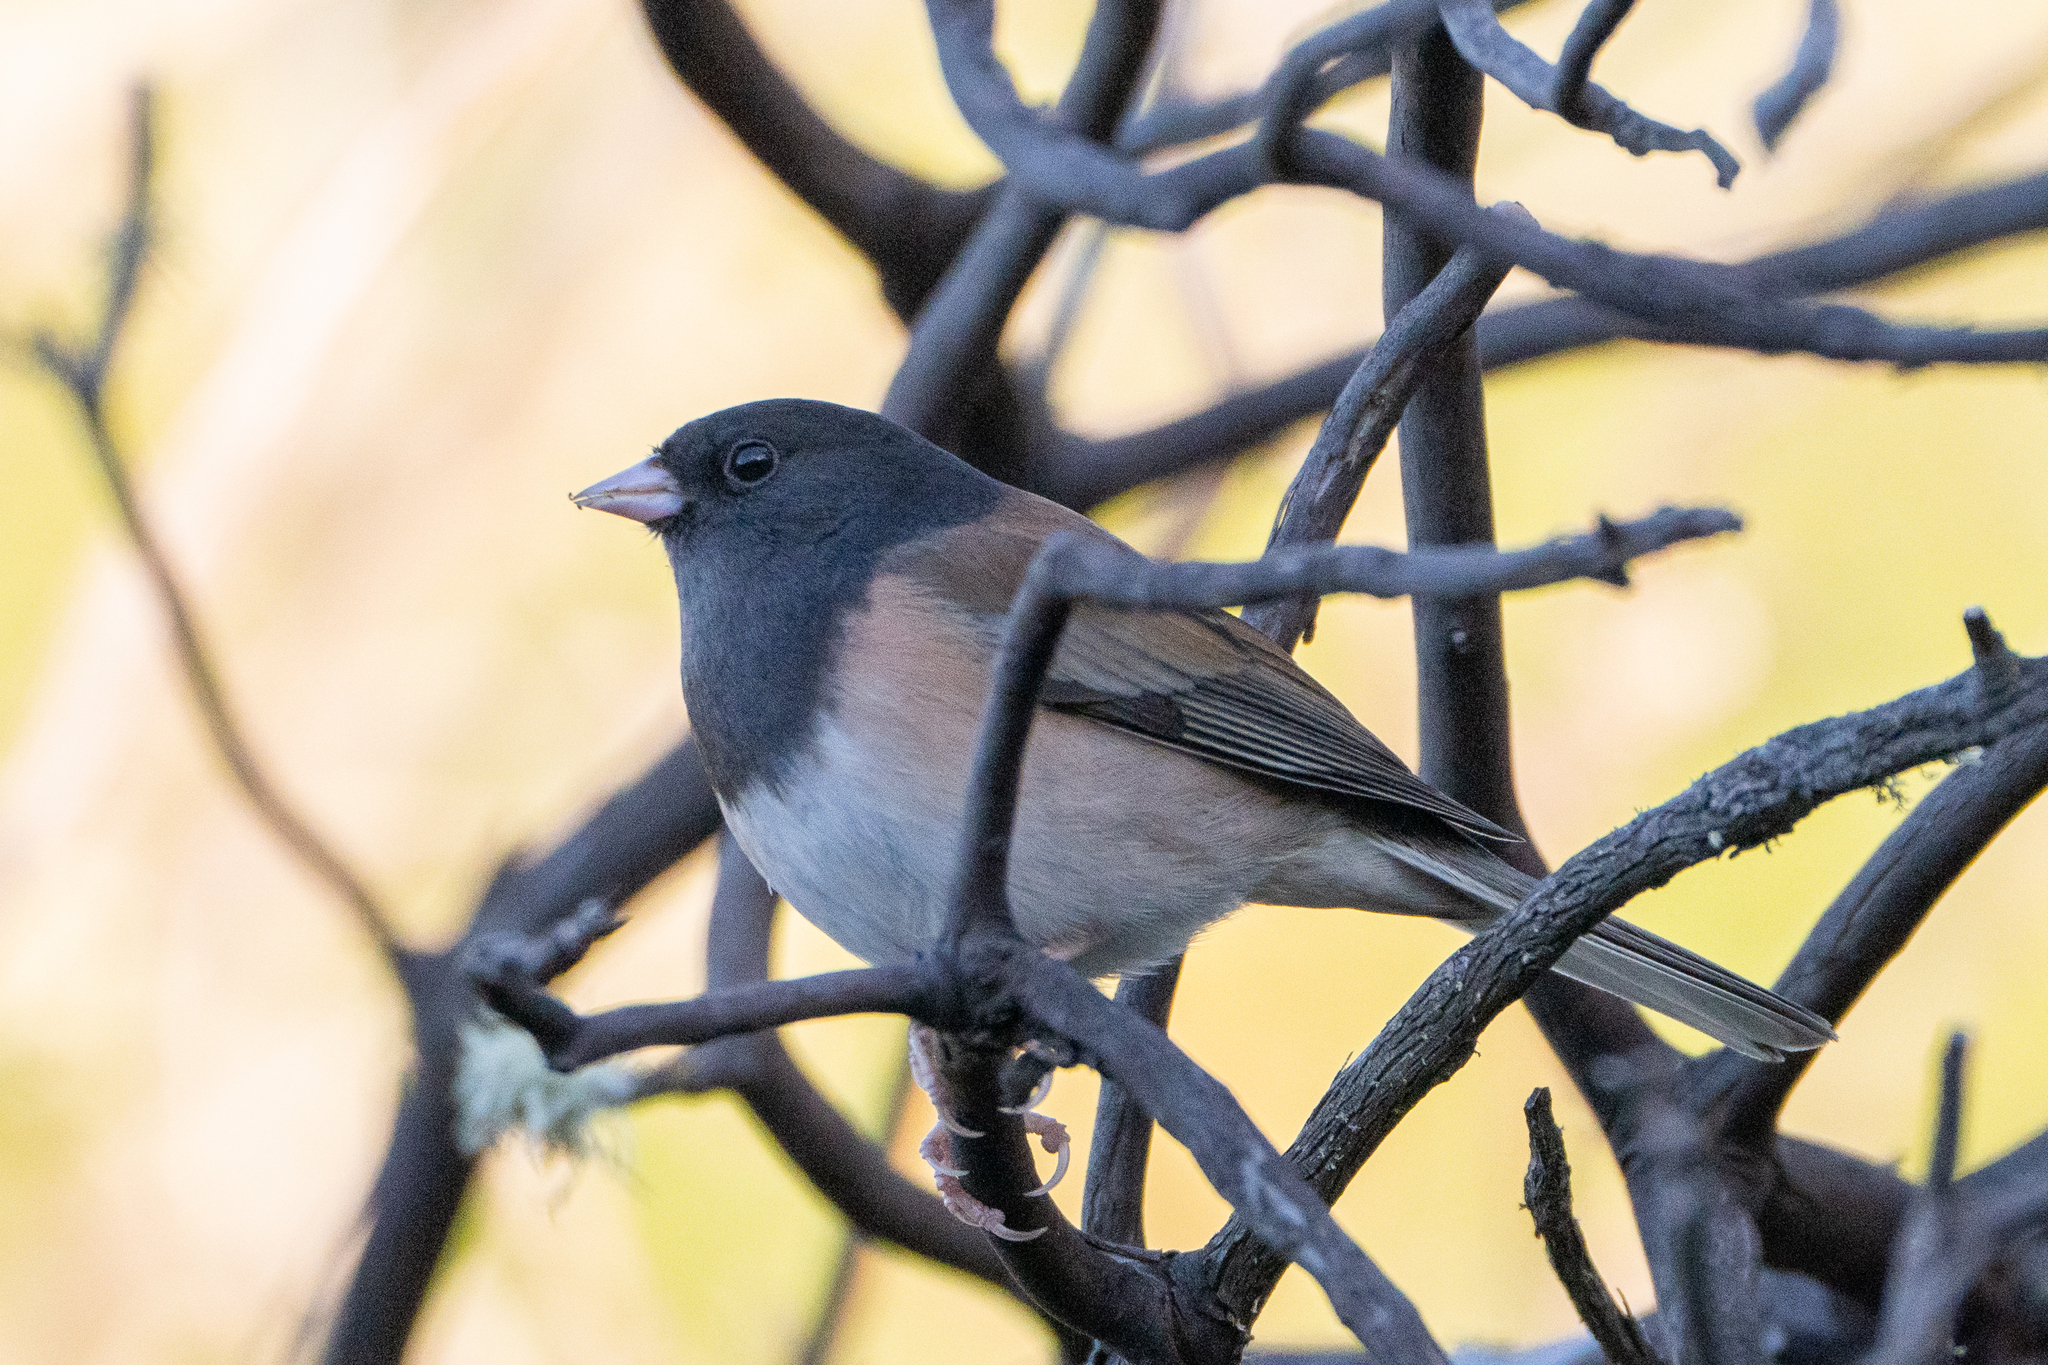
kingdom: Animalia
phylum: Chordata
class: Aves
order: Passeriformes
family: Passerellidae
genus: Junco
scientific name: Junco hyemalis
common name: Dark-eyed junco
